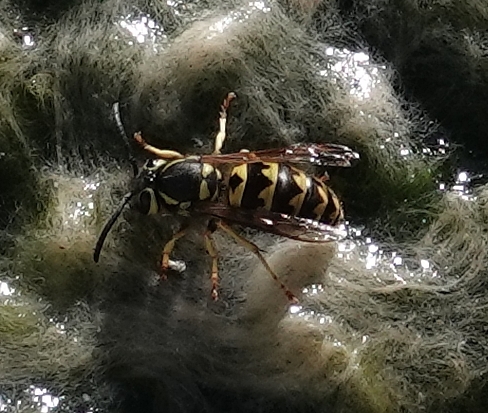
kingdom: Animalia
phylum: Arthropoda
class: Insecta
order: Hymenoptera
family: Vespidae
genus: Vespula
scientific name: Vespula pensylvanica
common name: Western yellowjacket
